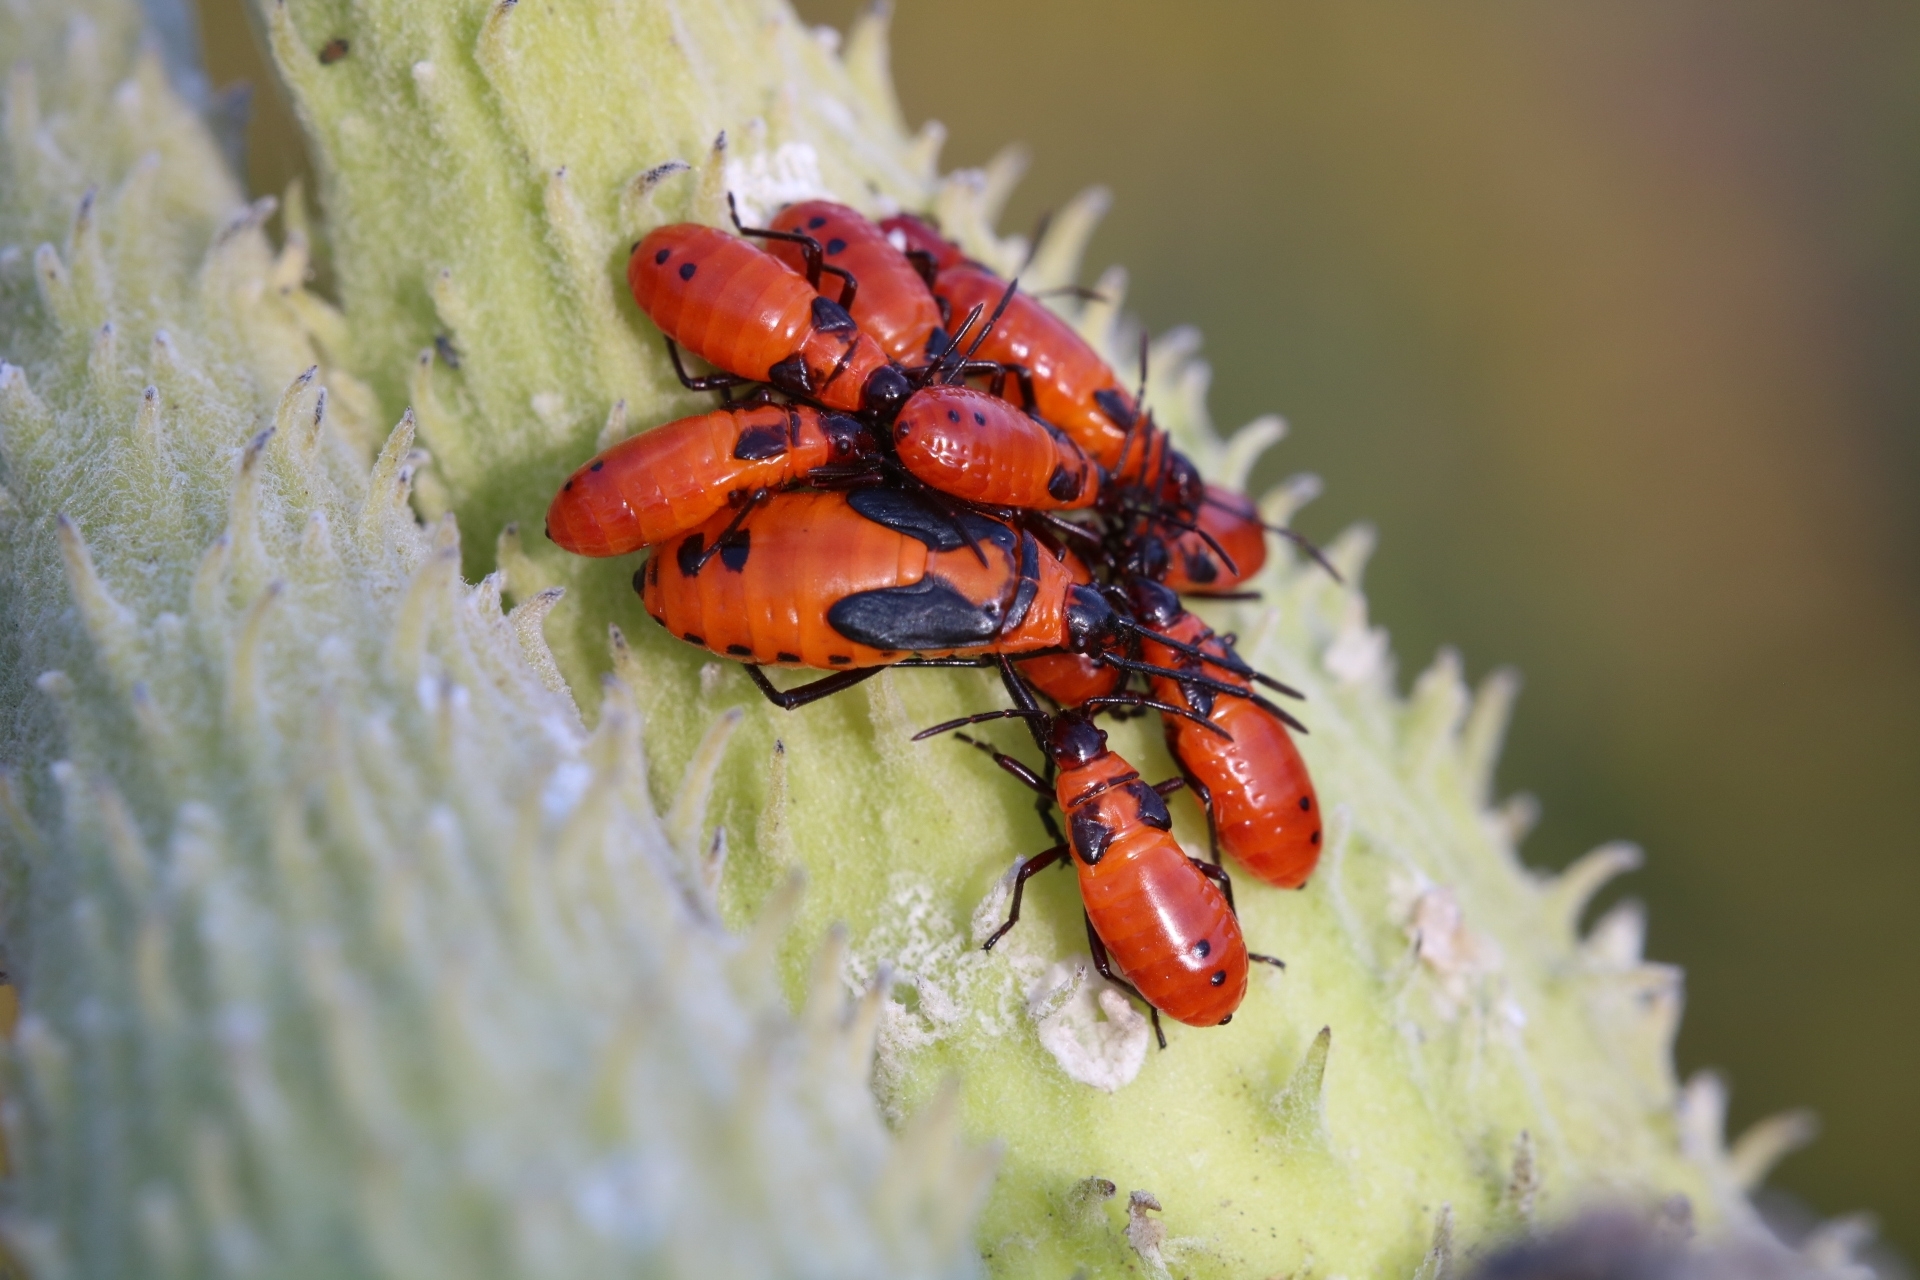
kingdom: Animalia
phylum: Arthropoda
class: Insecta
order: Hemiptera
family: Lygaeidae
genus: Oncopeltus
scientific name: Oncopeltus fasciatus
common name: Large milkweed bug
